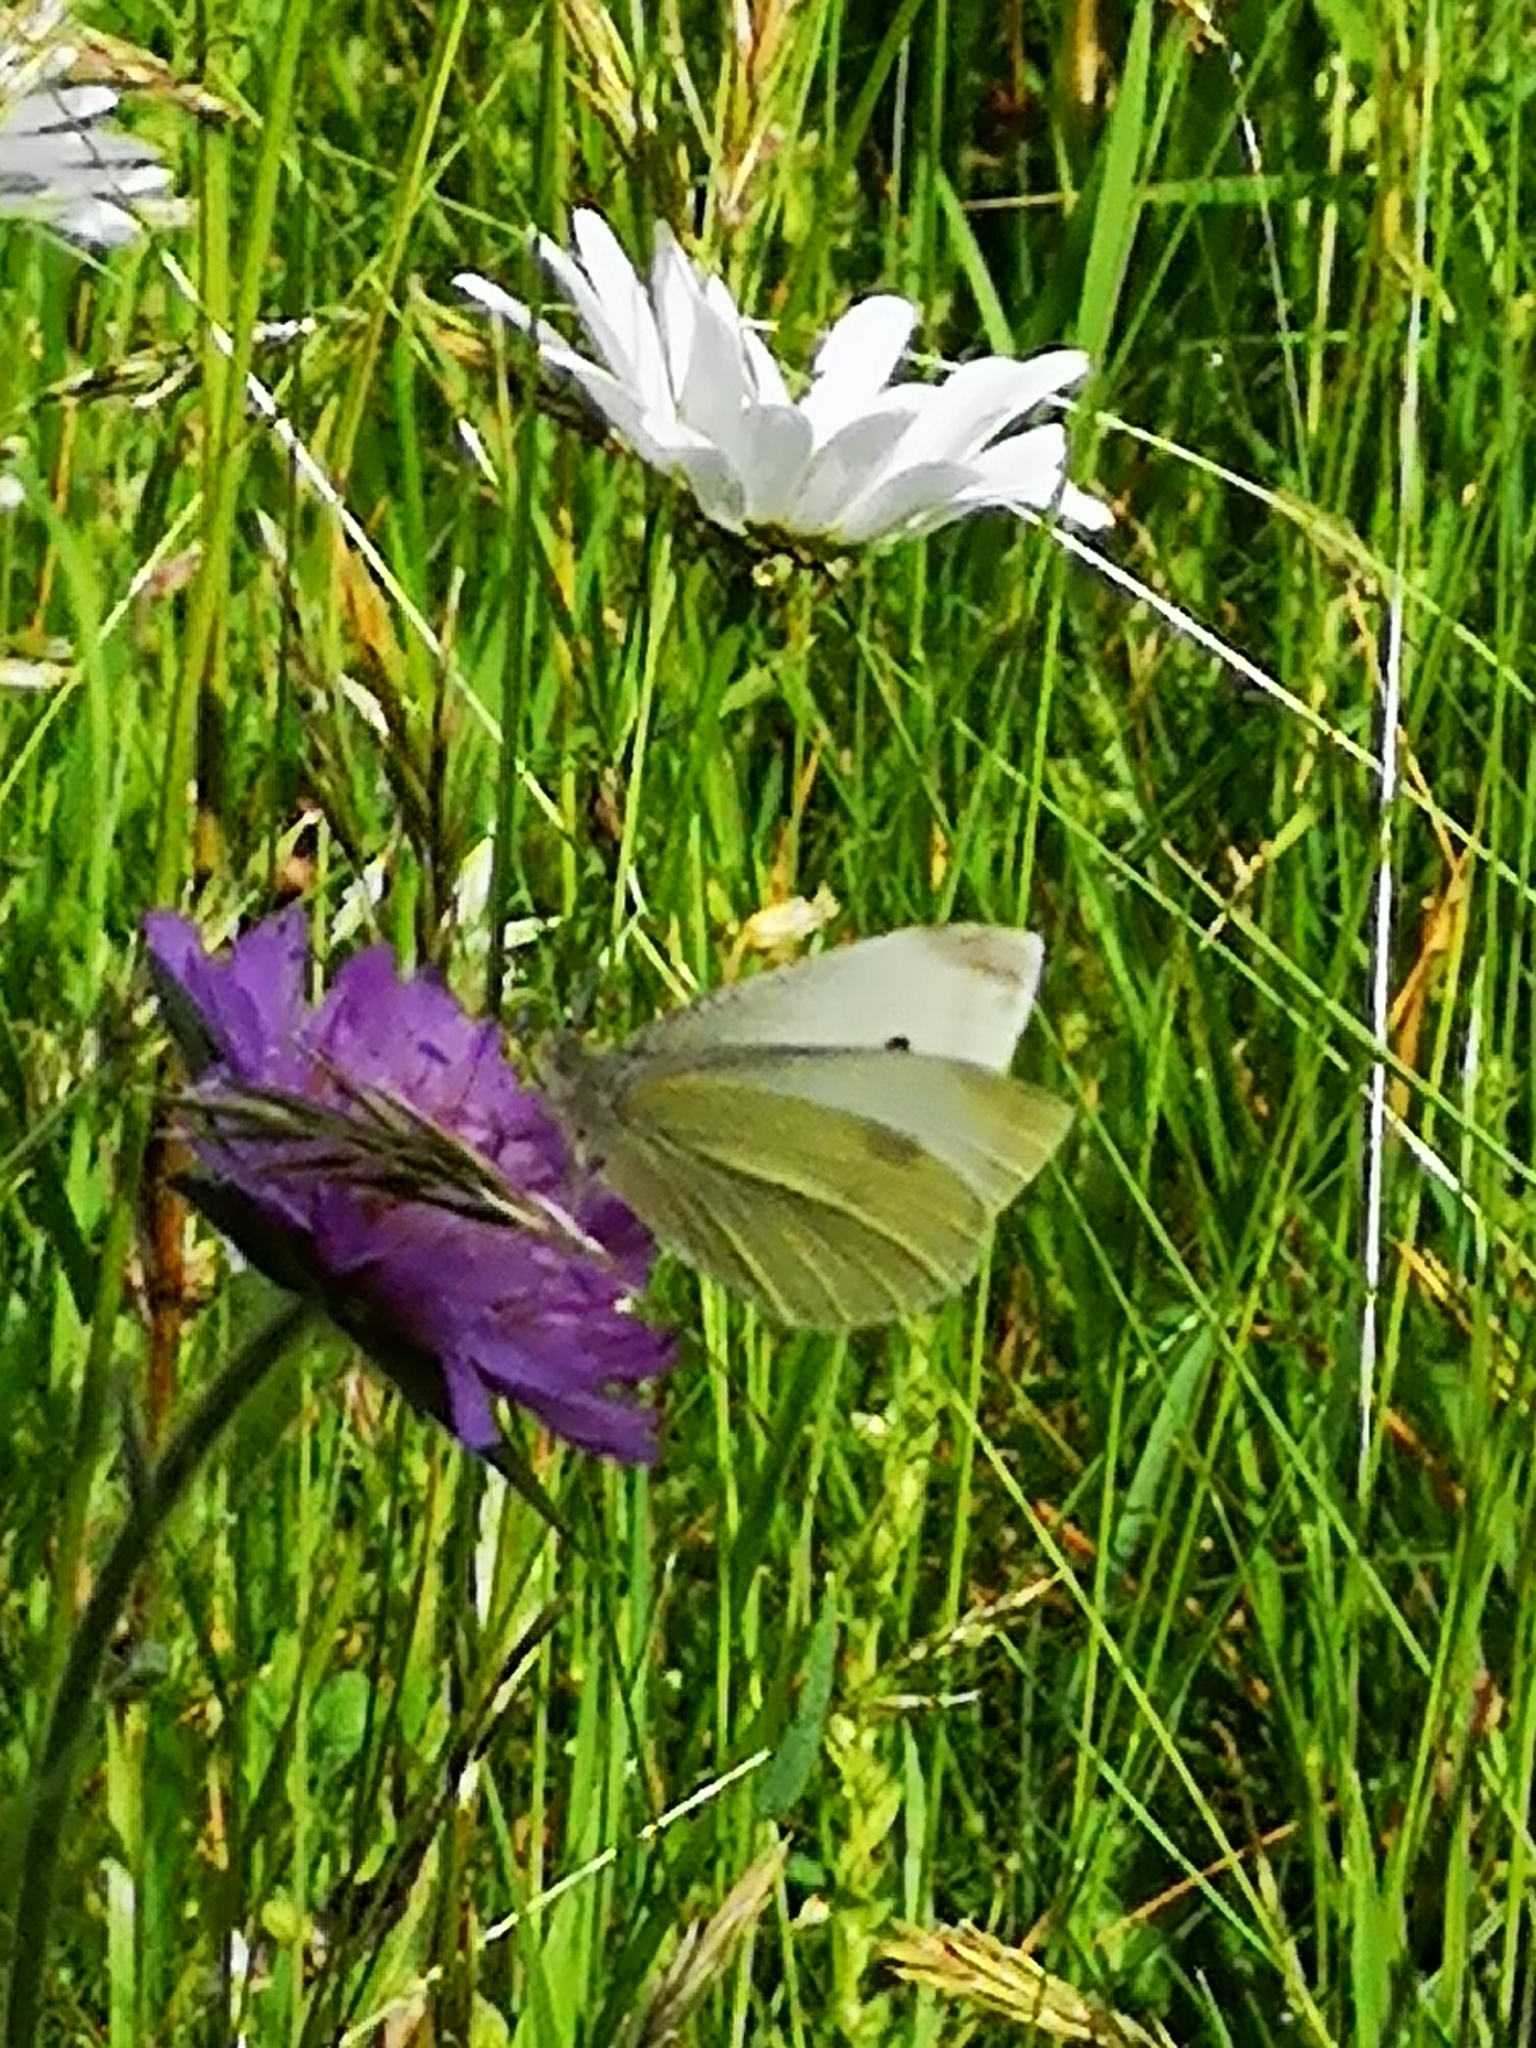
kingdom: Animalia
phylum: Arthropoda
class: Insecta
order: Lepidoptera
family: Pieridae
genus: Pieris
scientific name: Pieris rapae
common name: Small white
